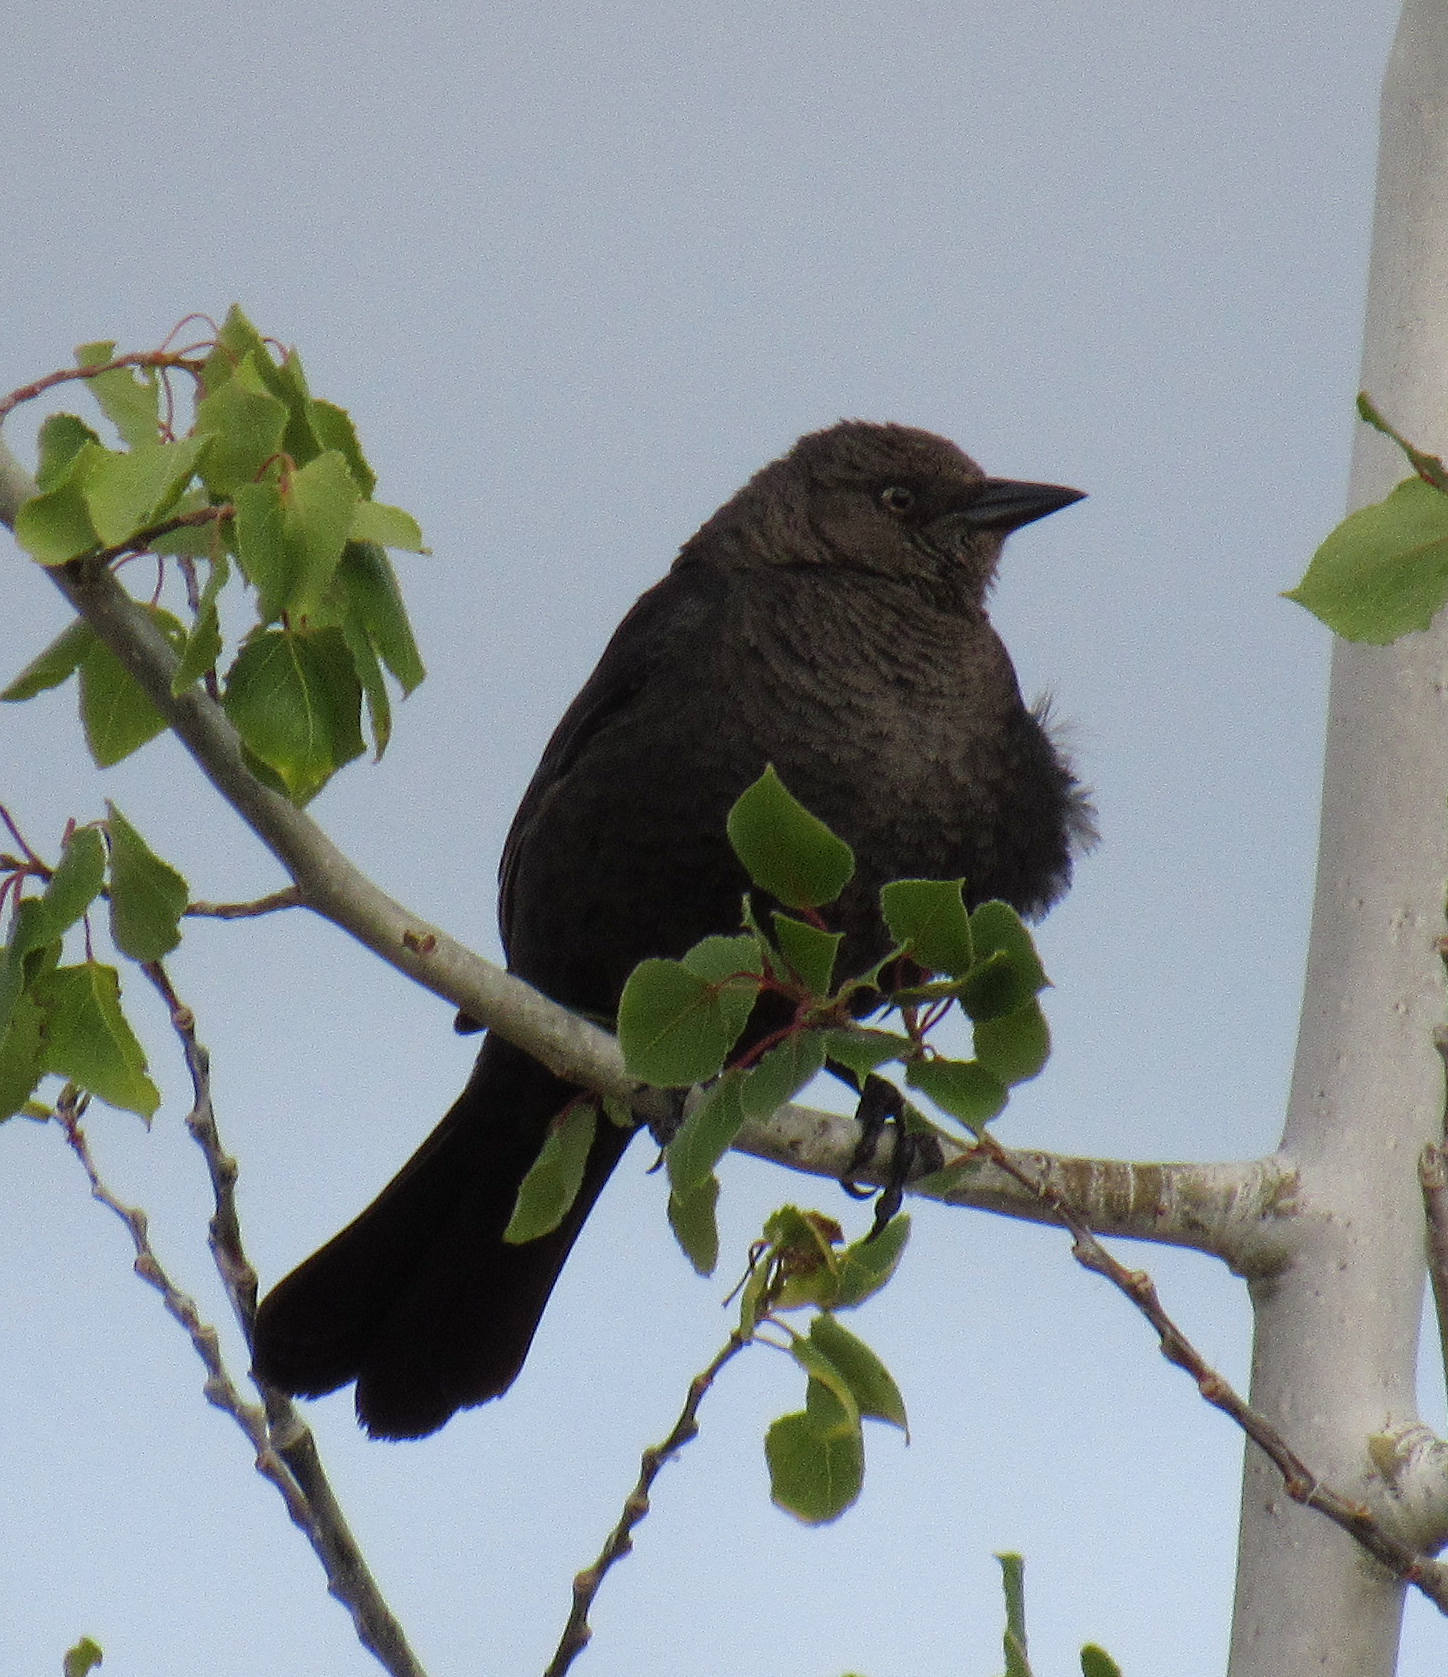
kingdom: Animalia
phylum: Chordata
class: Aves
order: Passeriformes
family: Icteridae
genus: Euphagus
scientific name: Euphagus cyanocephalus
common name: Brewer's blackbird
